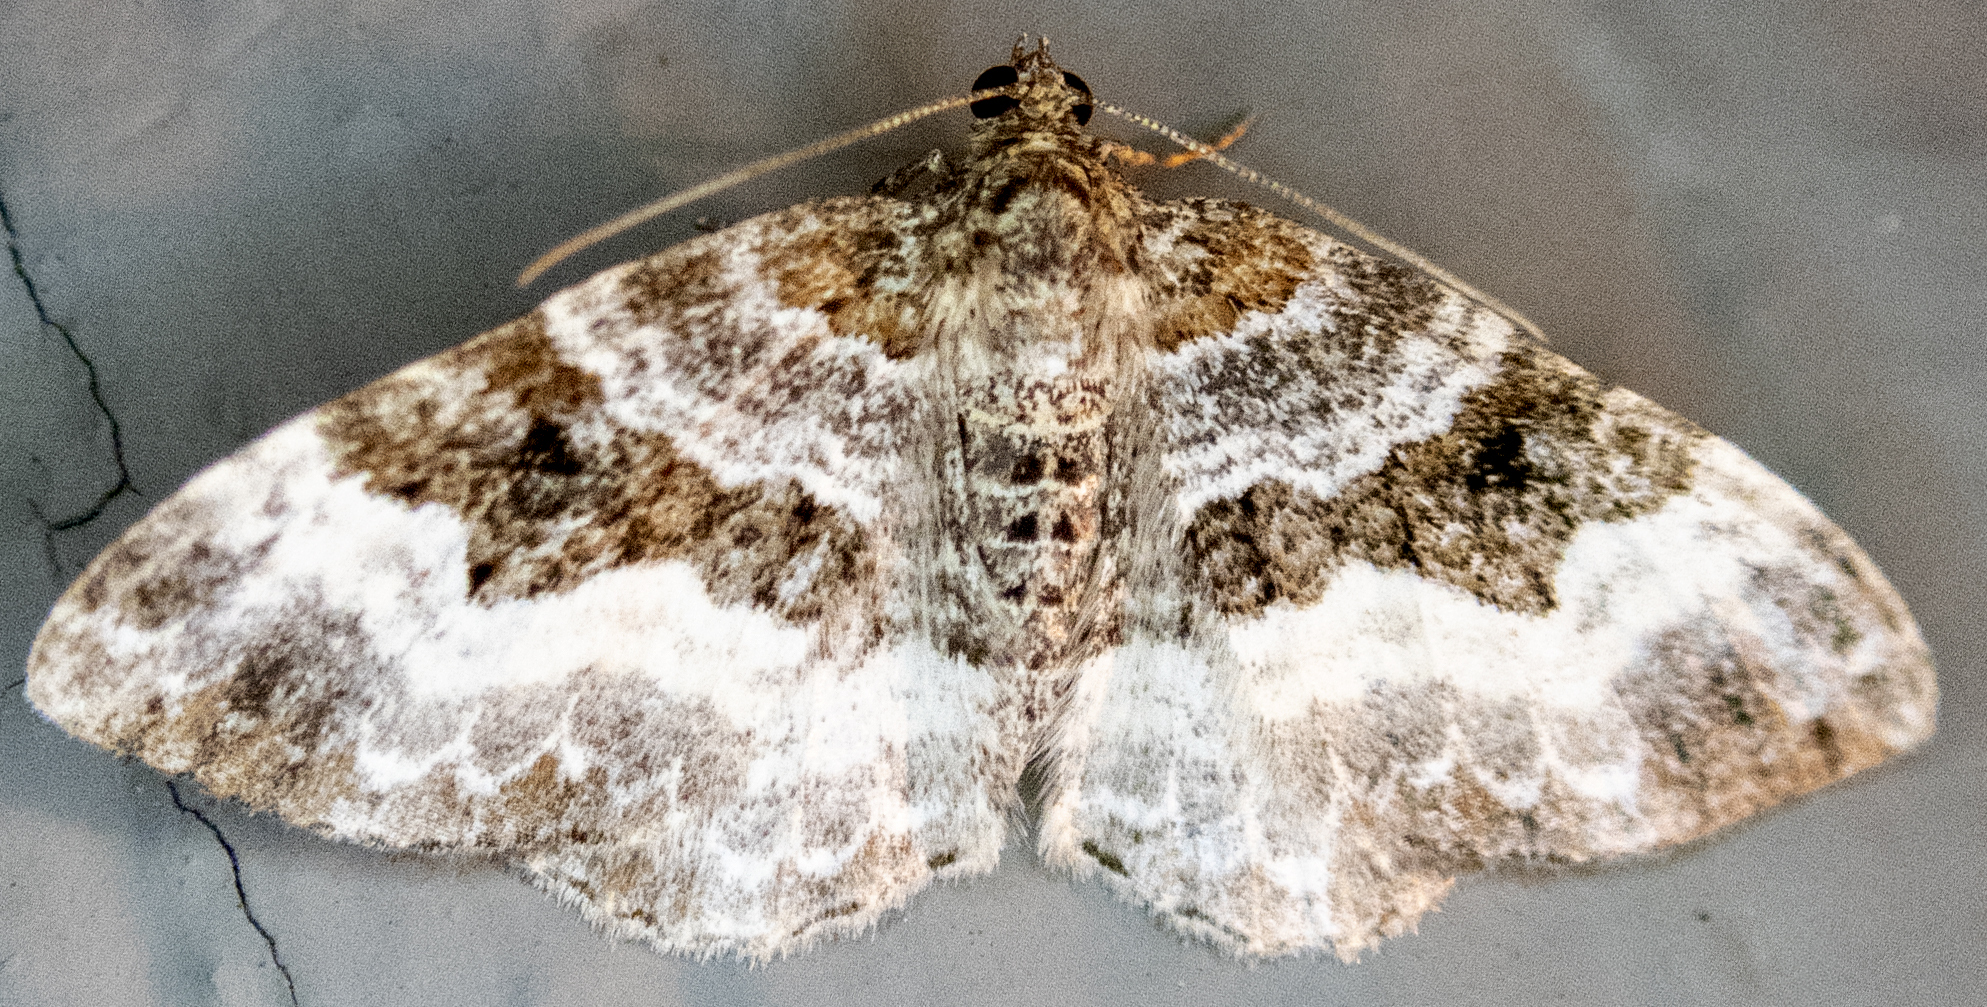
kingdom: Animalia
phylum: Arthropoda
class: Insecta
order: Lepidoptera
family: Geometridae
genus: Epirrhoe
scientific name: Epirrhoe alternata
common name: Common carpet
